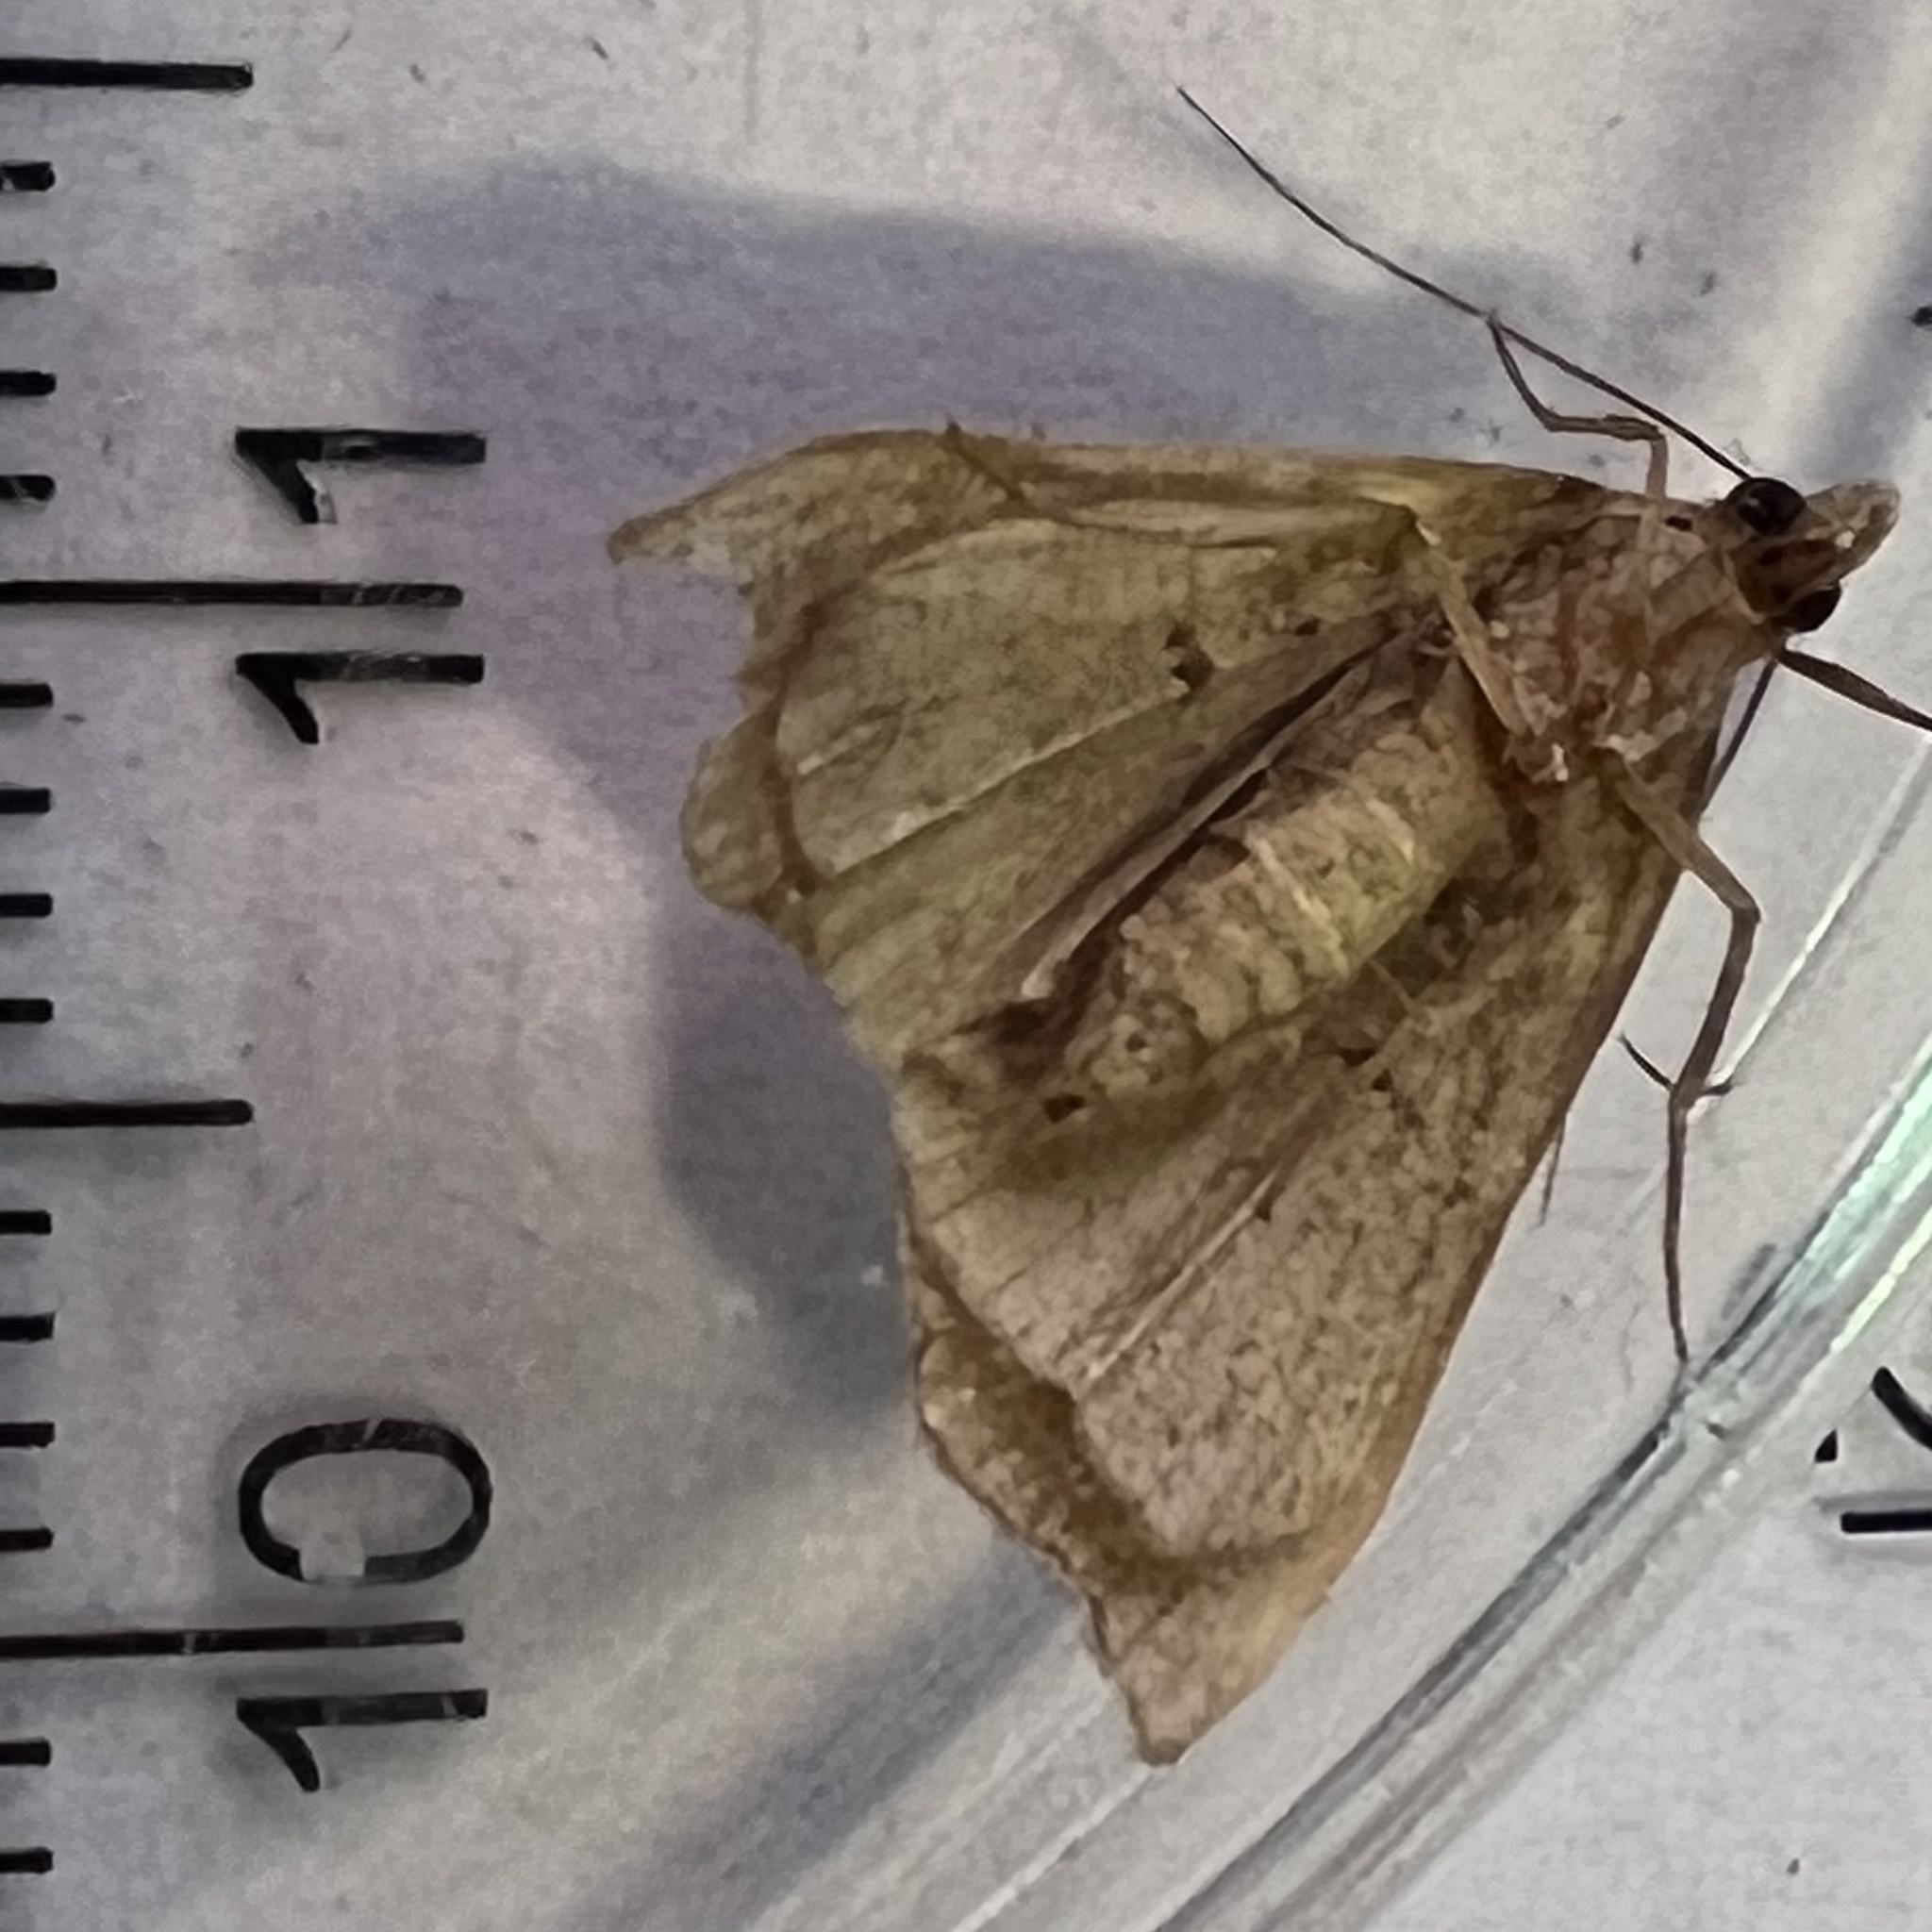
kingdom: Animalia
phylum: Arthropoda
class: Insecta
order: Lepidoptera
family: Erebidae
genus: Lascoria
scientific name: Lascoria ambigualis
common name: Ambiguous moth
